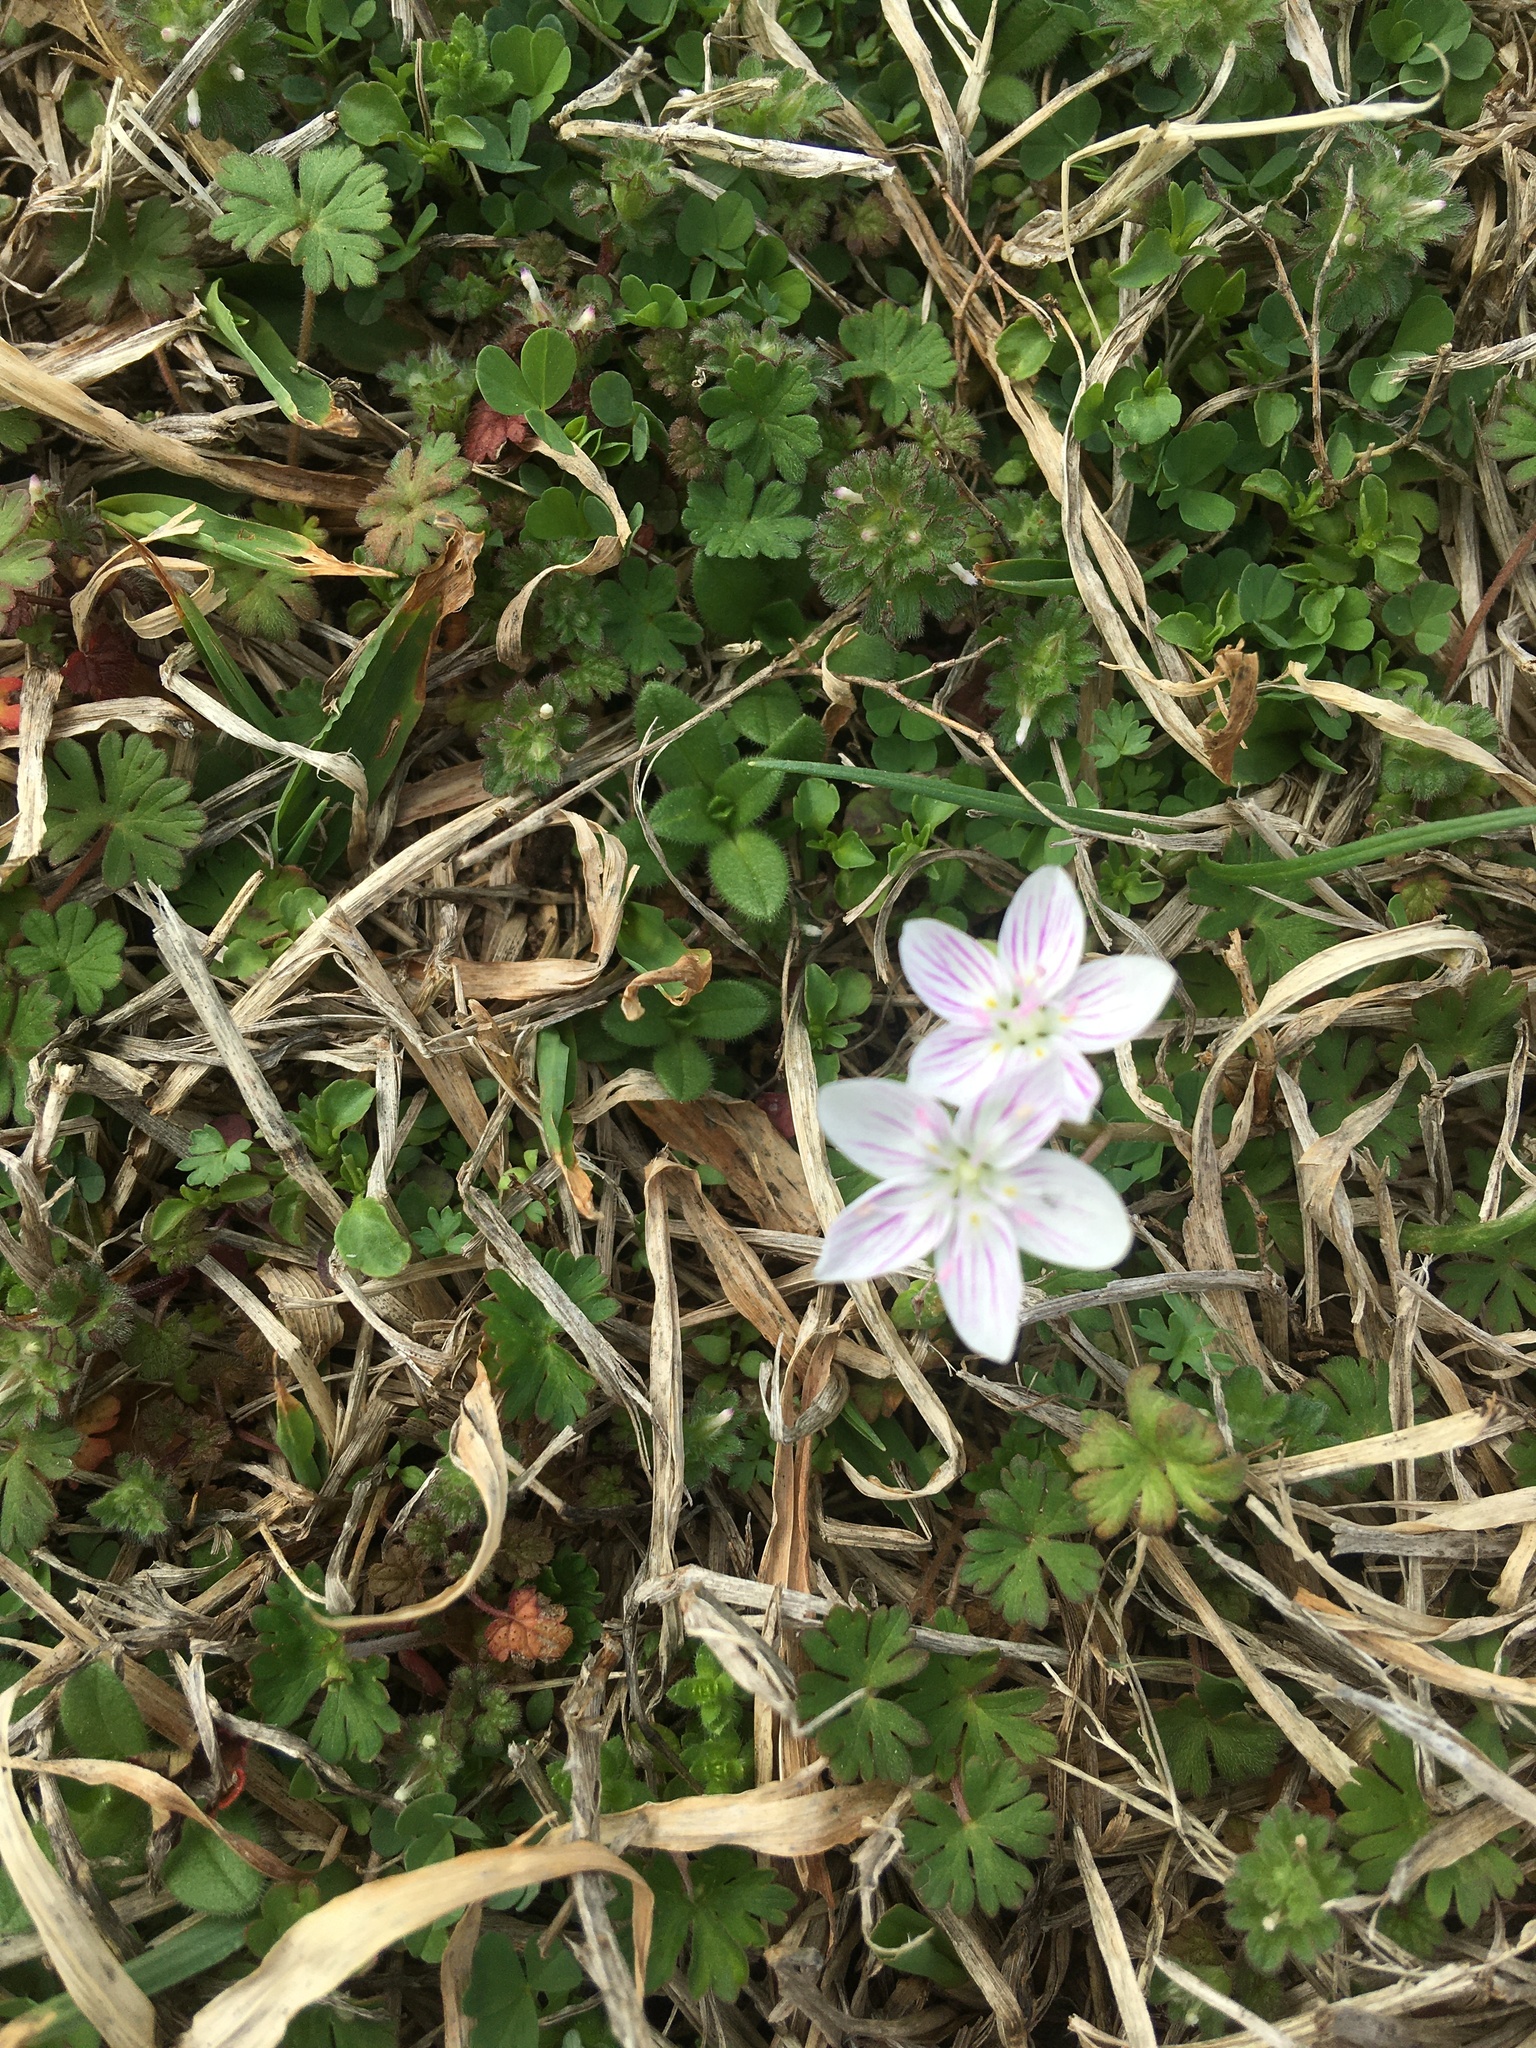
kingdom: Plantae
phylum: Tracheophyta
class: Magnoliopsida
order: Caryophyllales
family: Montiaceae
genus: Claytonia
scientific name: Claytonia virginica
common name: Virginia springbeauty
